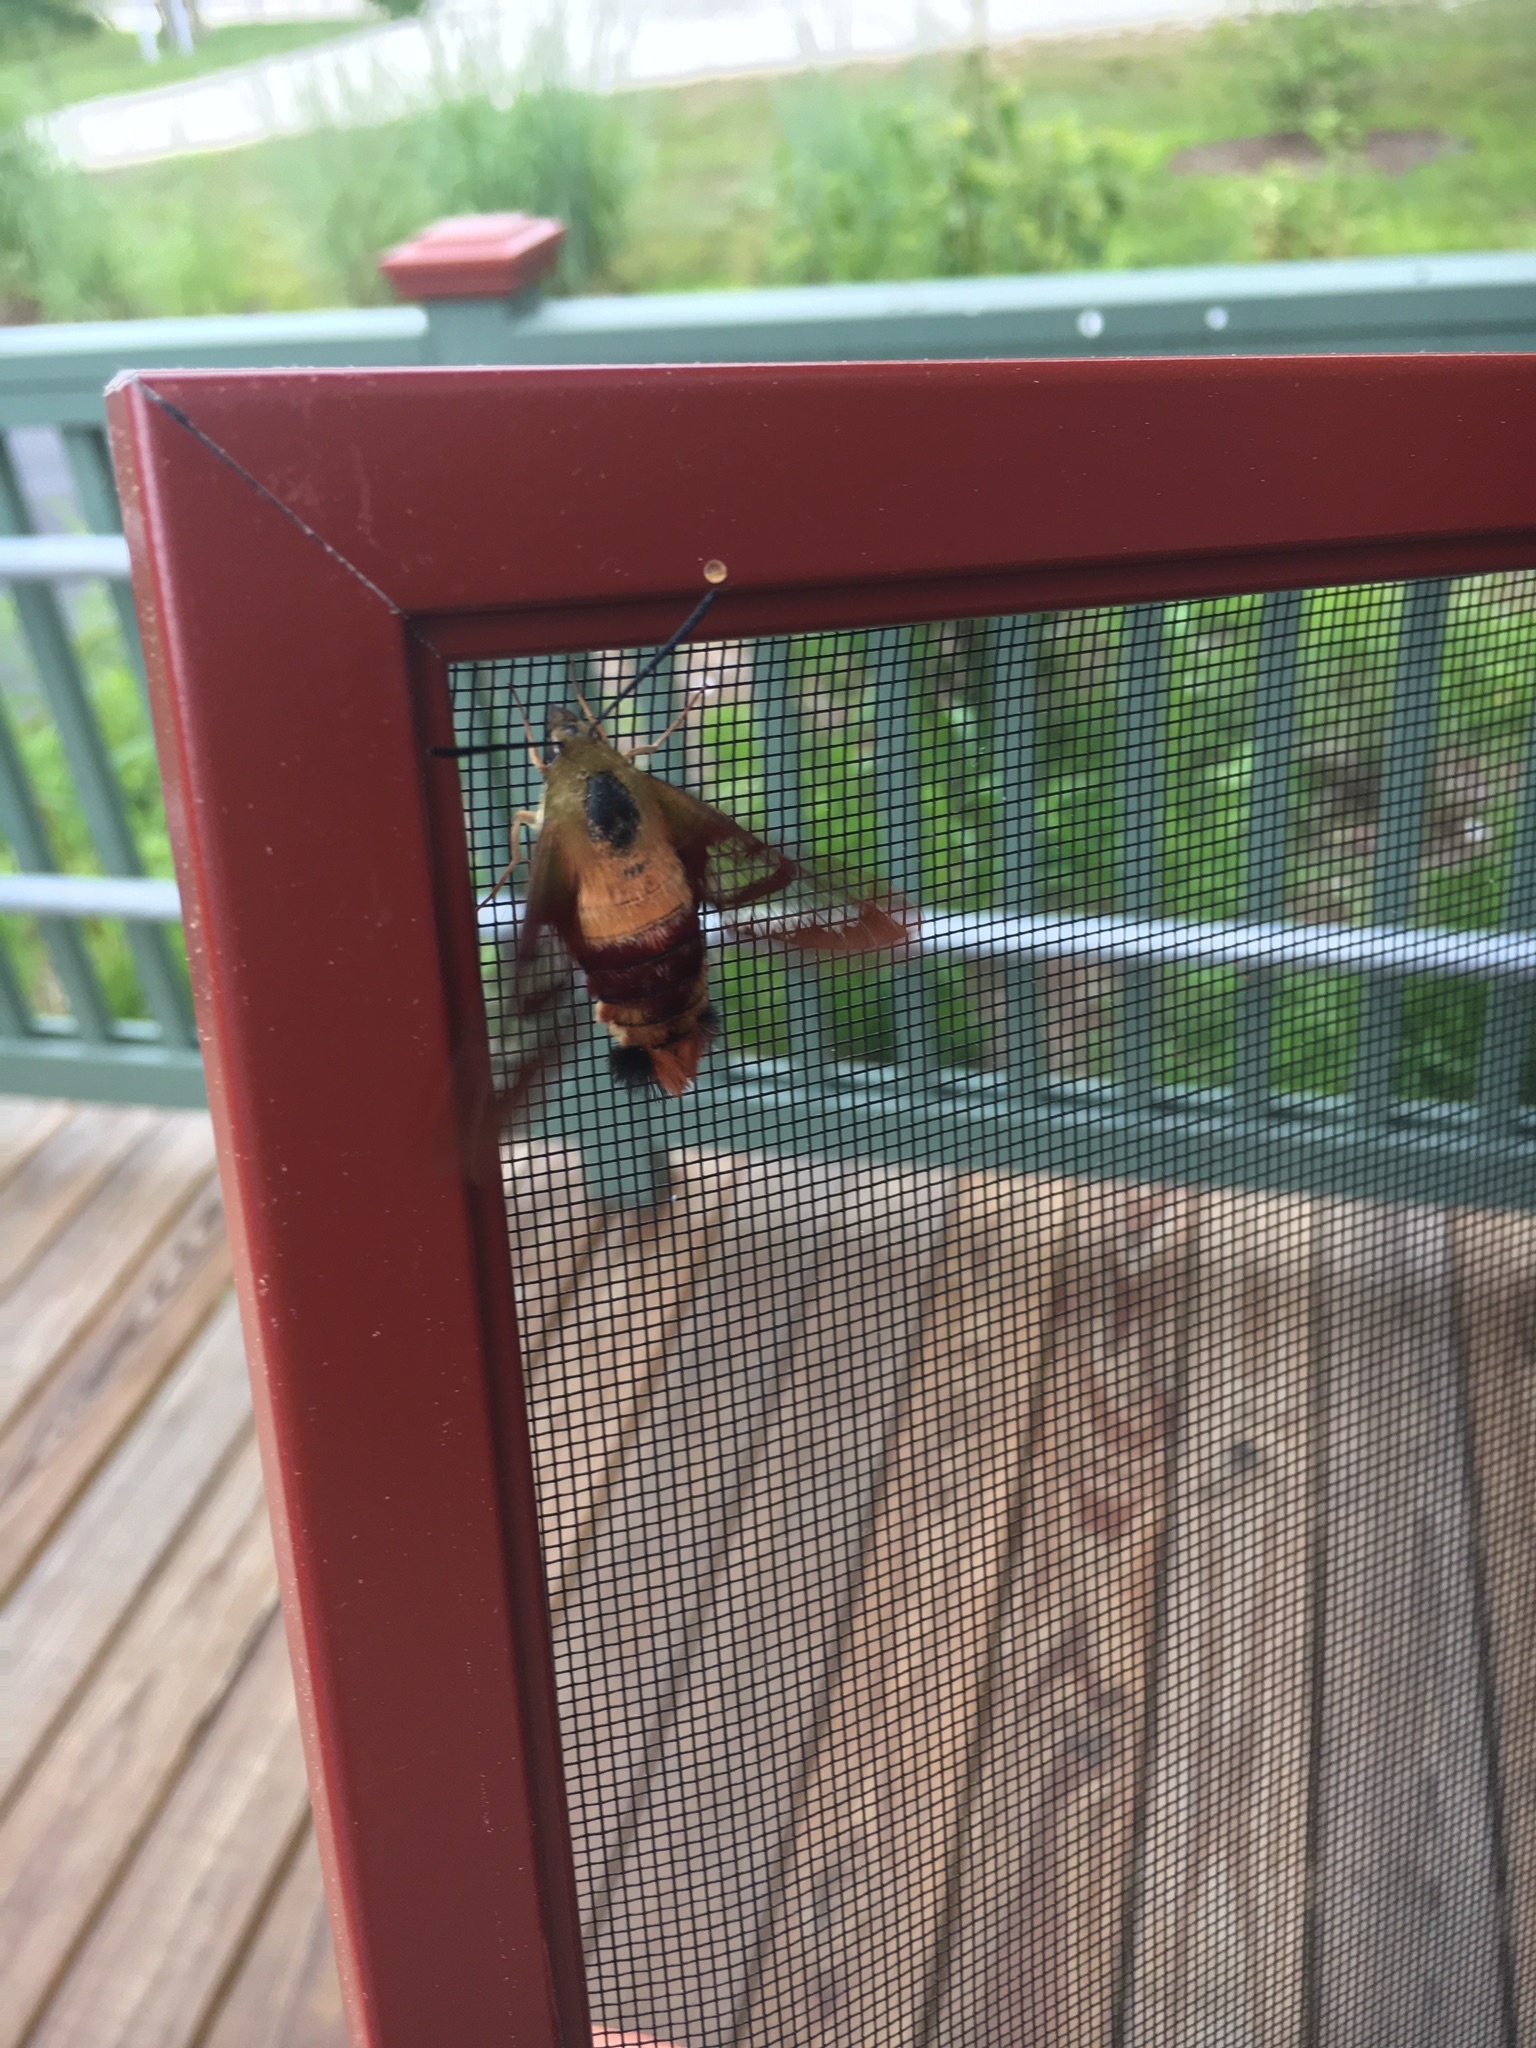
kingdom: Animalia
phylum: Arthropoda
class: Insecta
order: Lepidoptera
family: Sphingidae
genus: Hemaris
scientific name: Hemaris thysbe
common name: Common clear-wing
